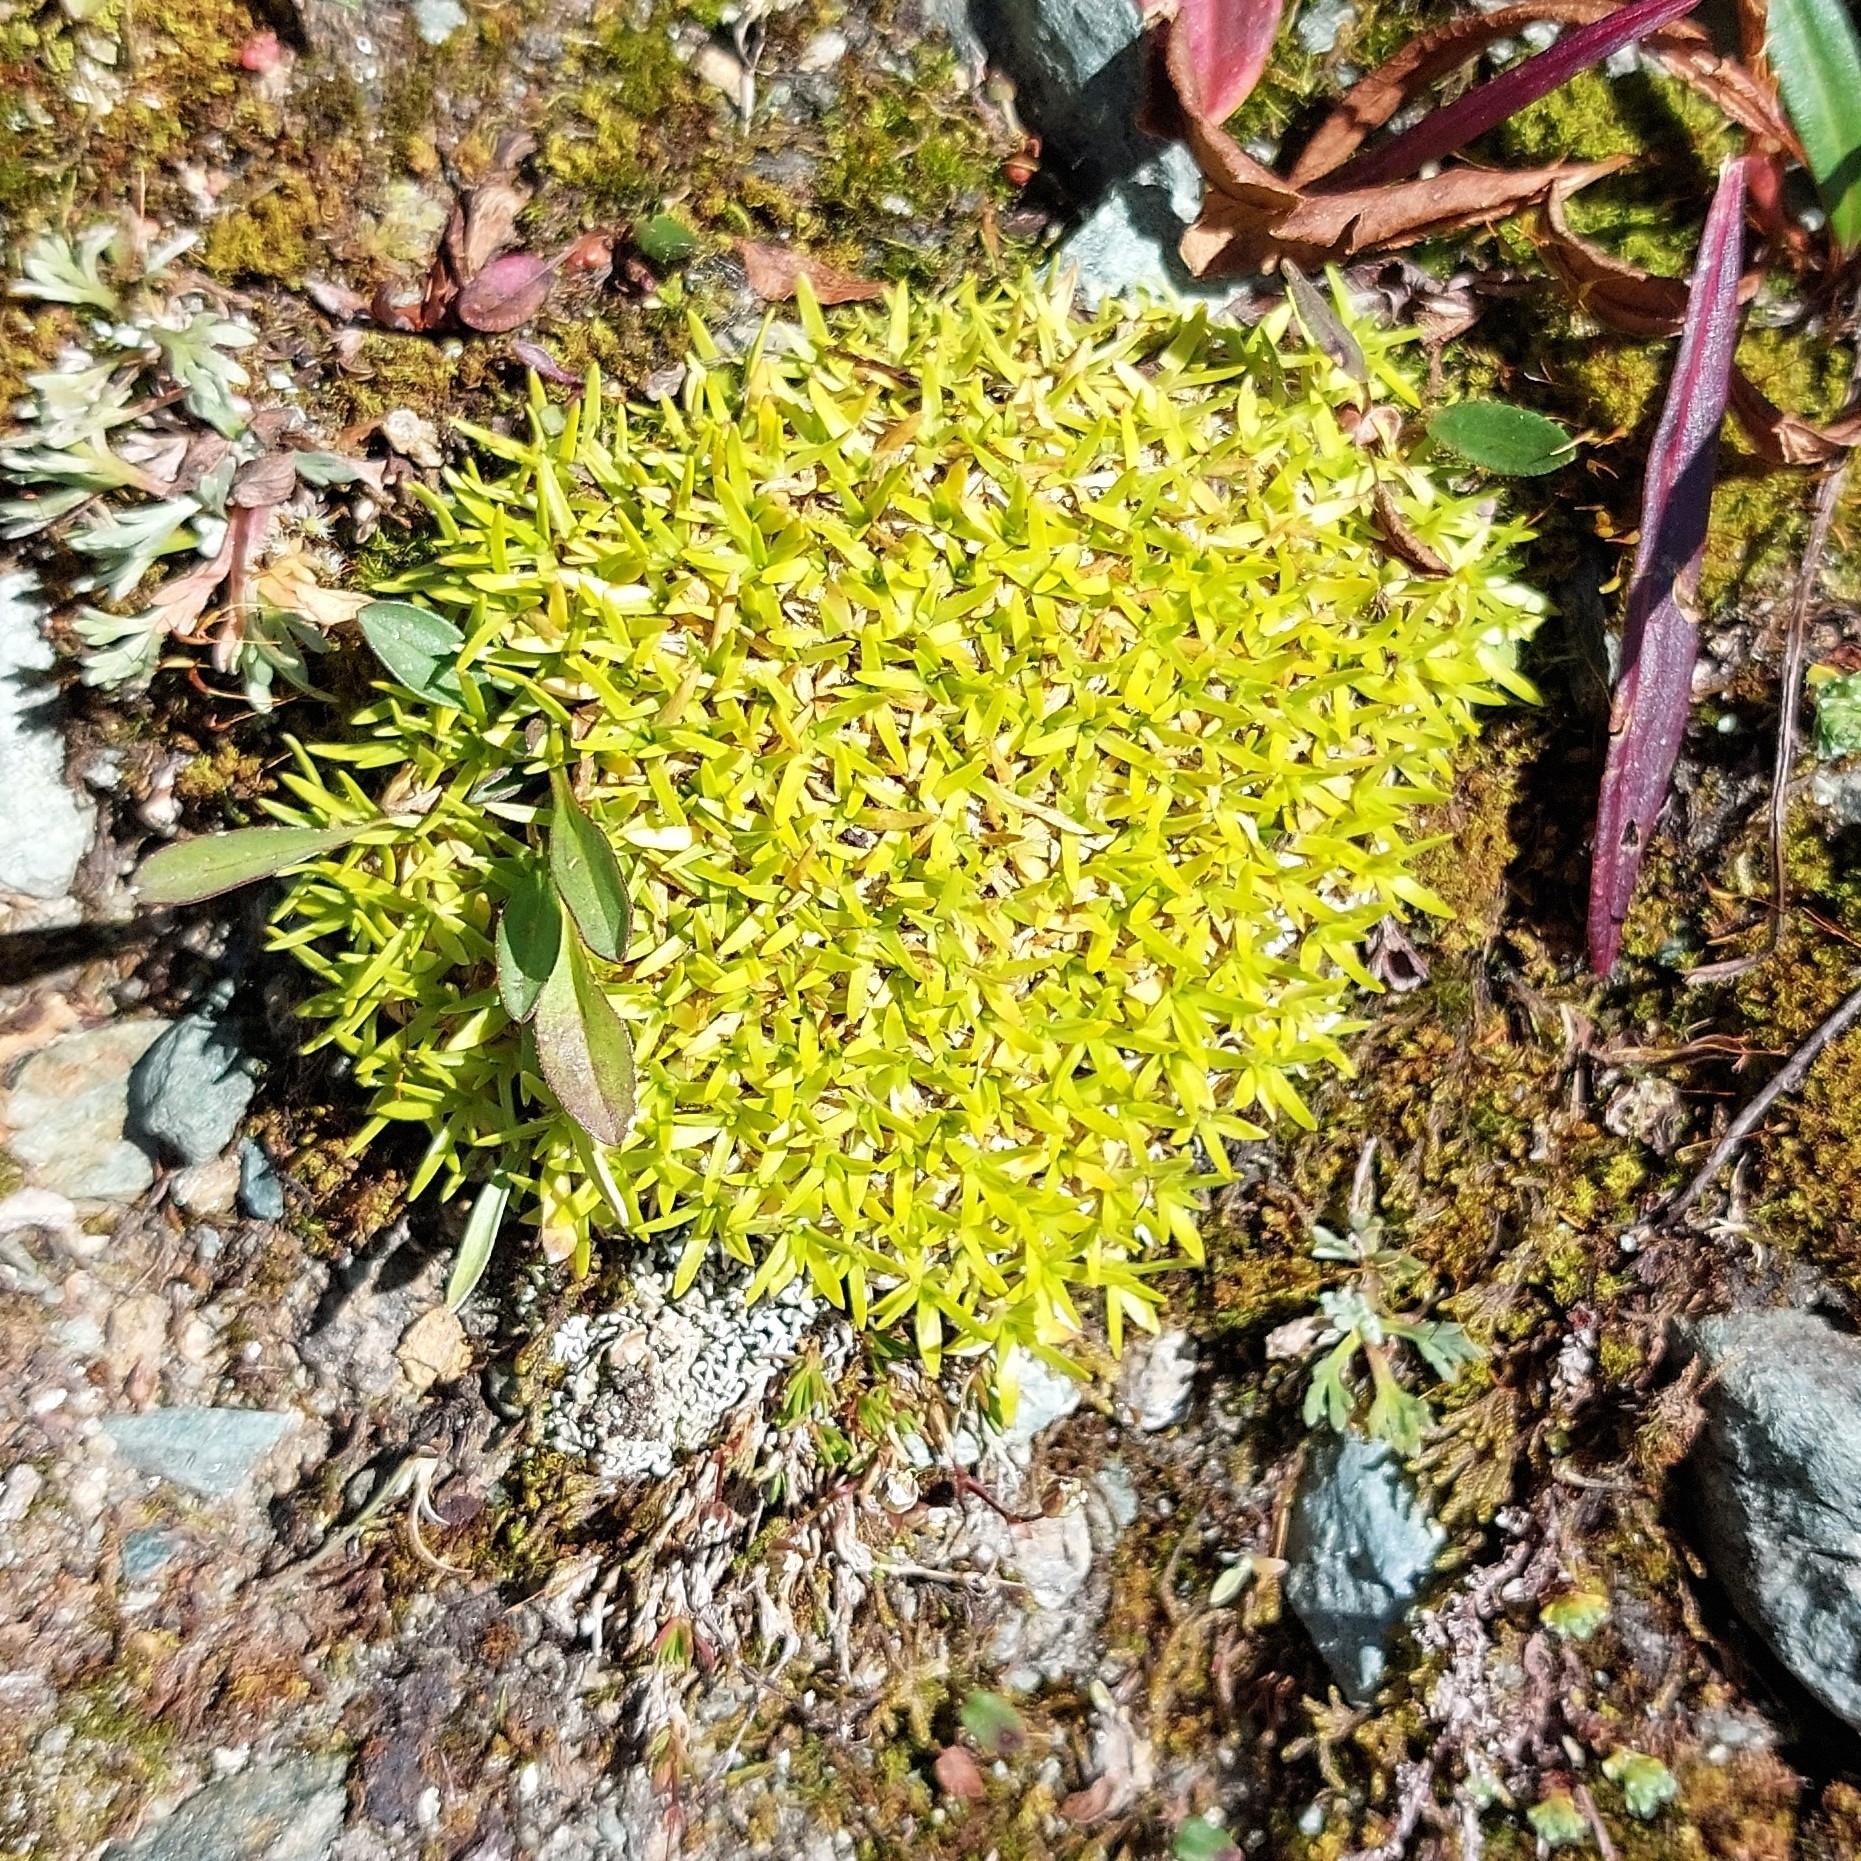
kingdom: Plantae
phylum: Tracheophyta
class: Magnoliopsida
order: Caryophyllales
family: Caryophyllaceae
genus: Silene
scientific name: Silene acaulis
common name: Moss campion
